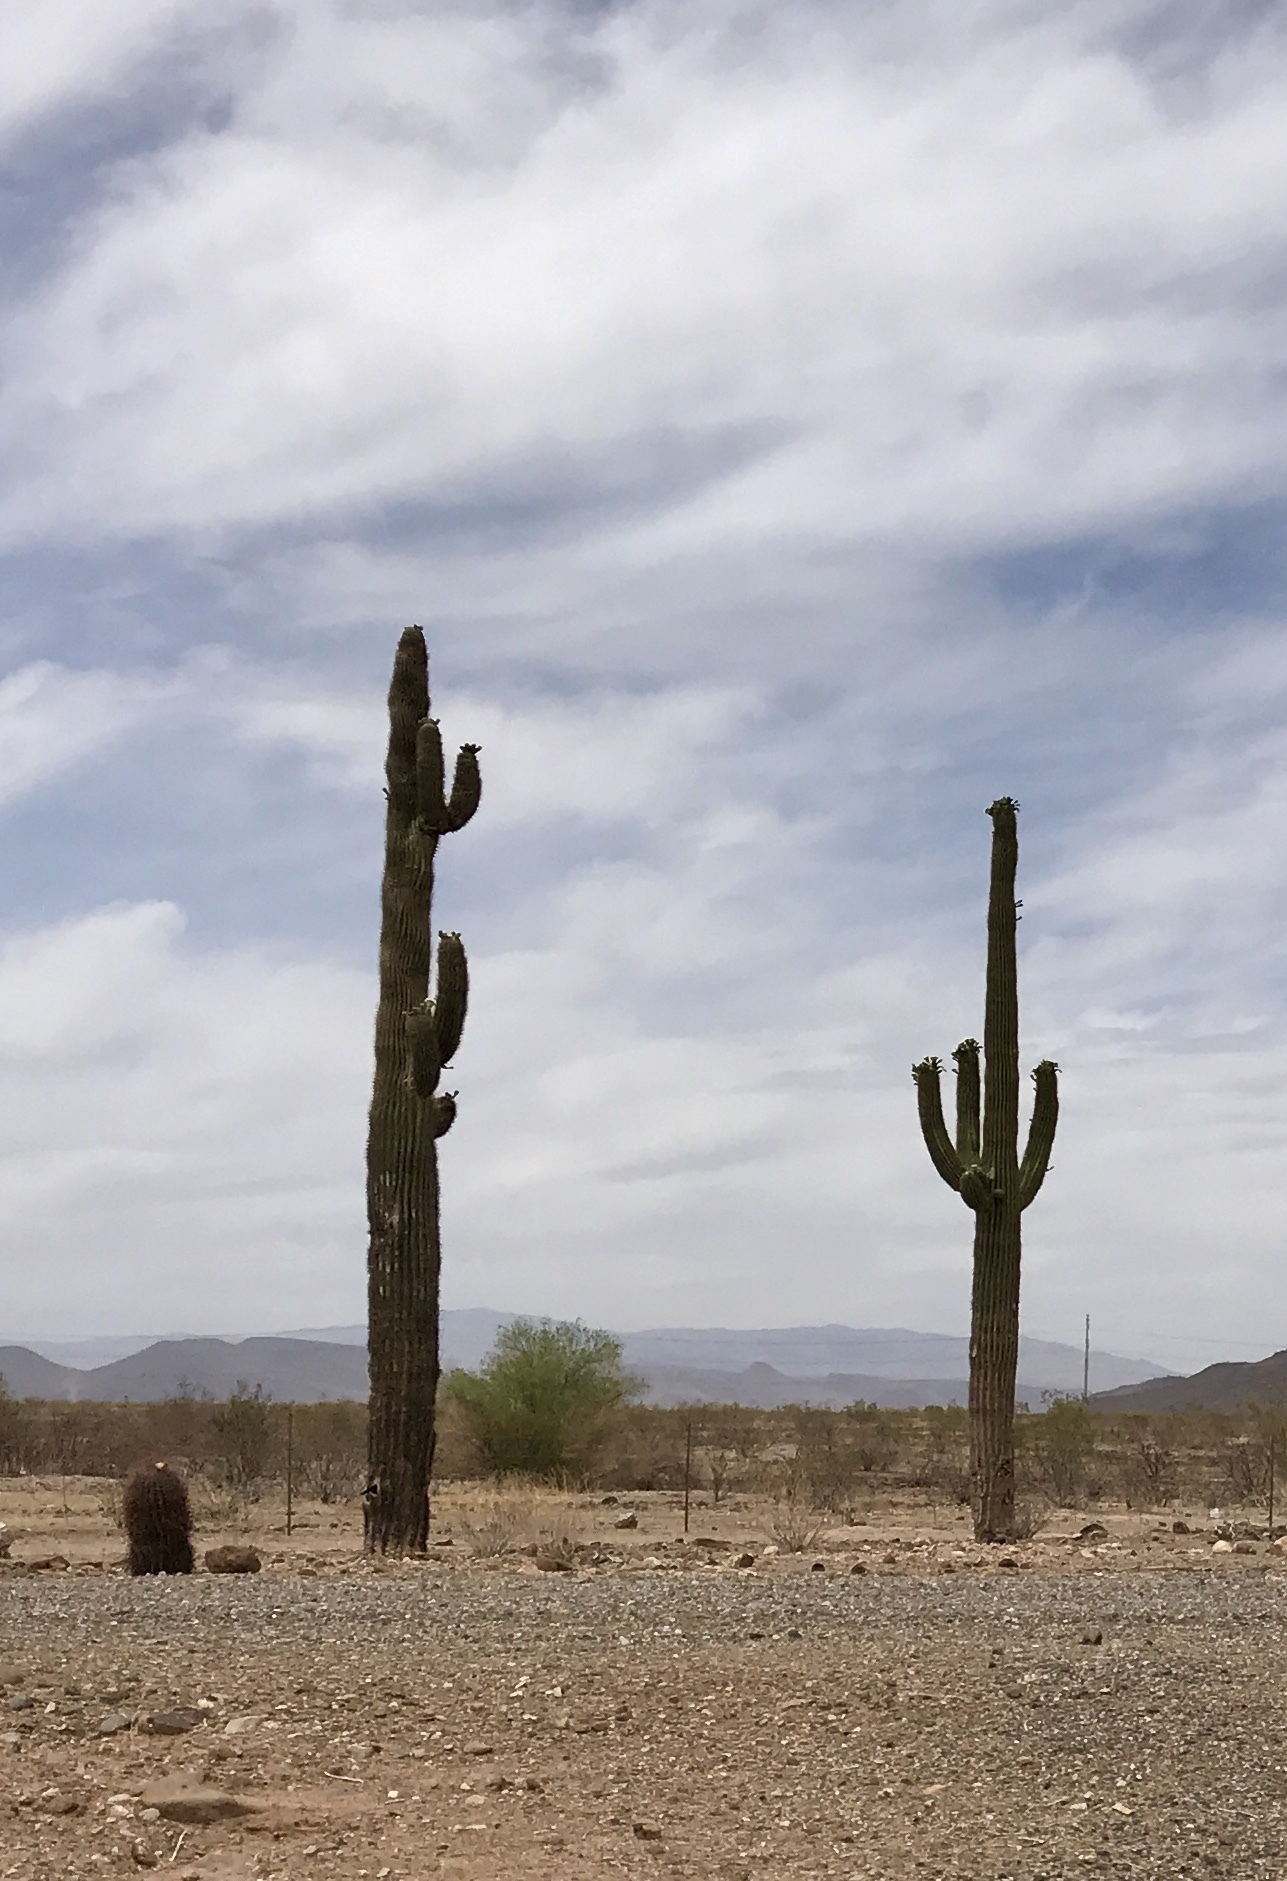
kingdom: Plantae
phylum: Tracheophyta
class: Magnoliopsida
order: Caryophyllales
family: Cactaceae
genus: Carnegiea
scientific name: Carnegiea gigantea
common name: Saguaro
